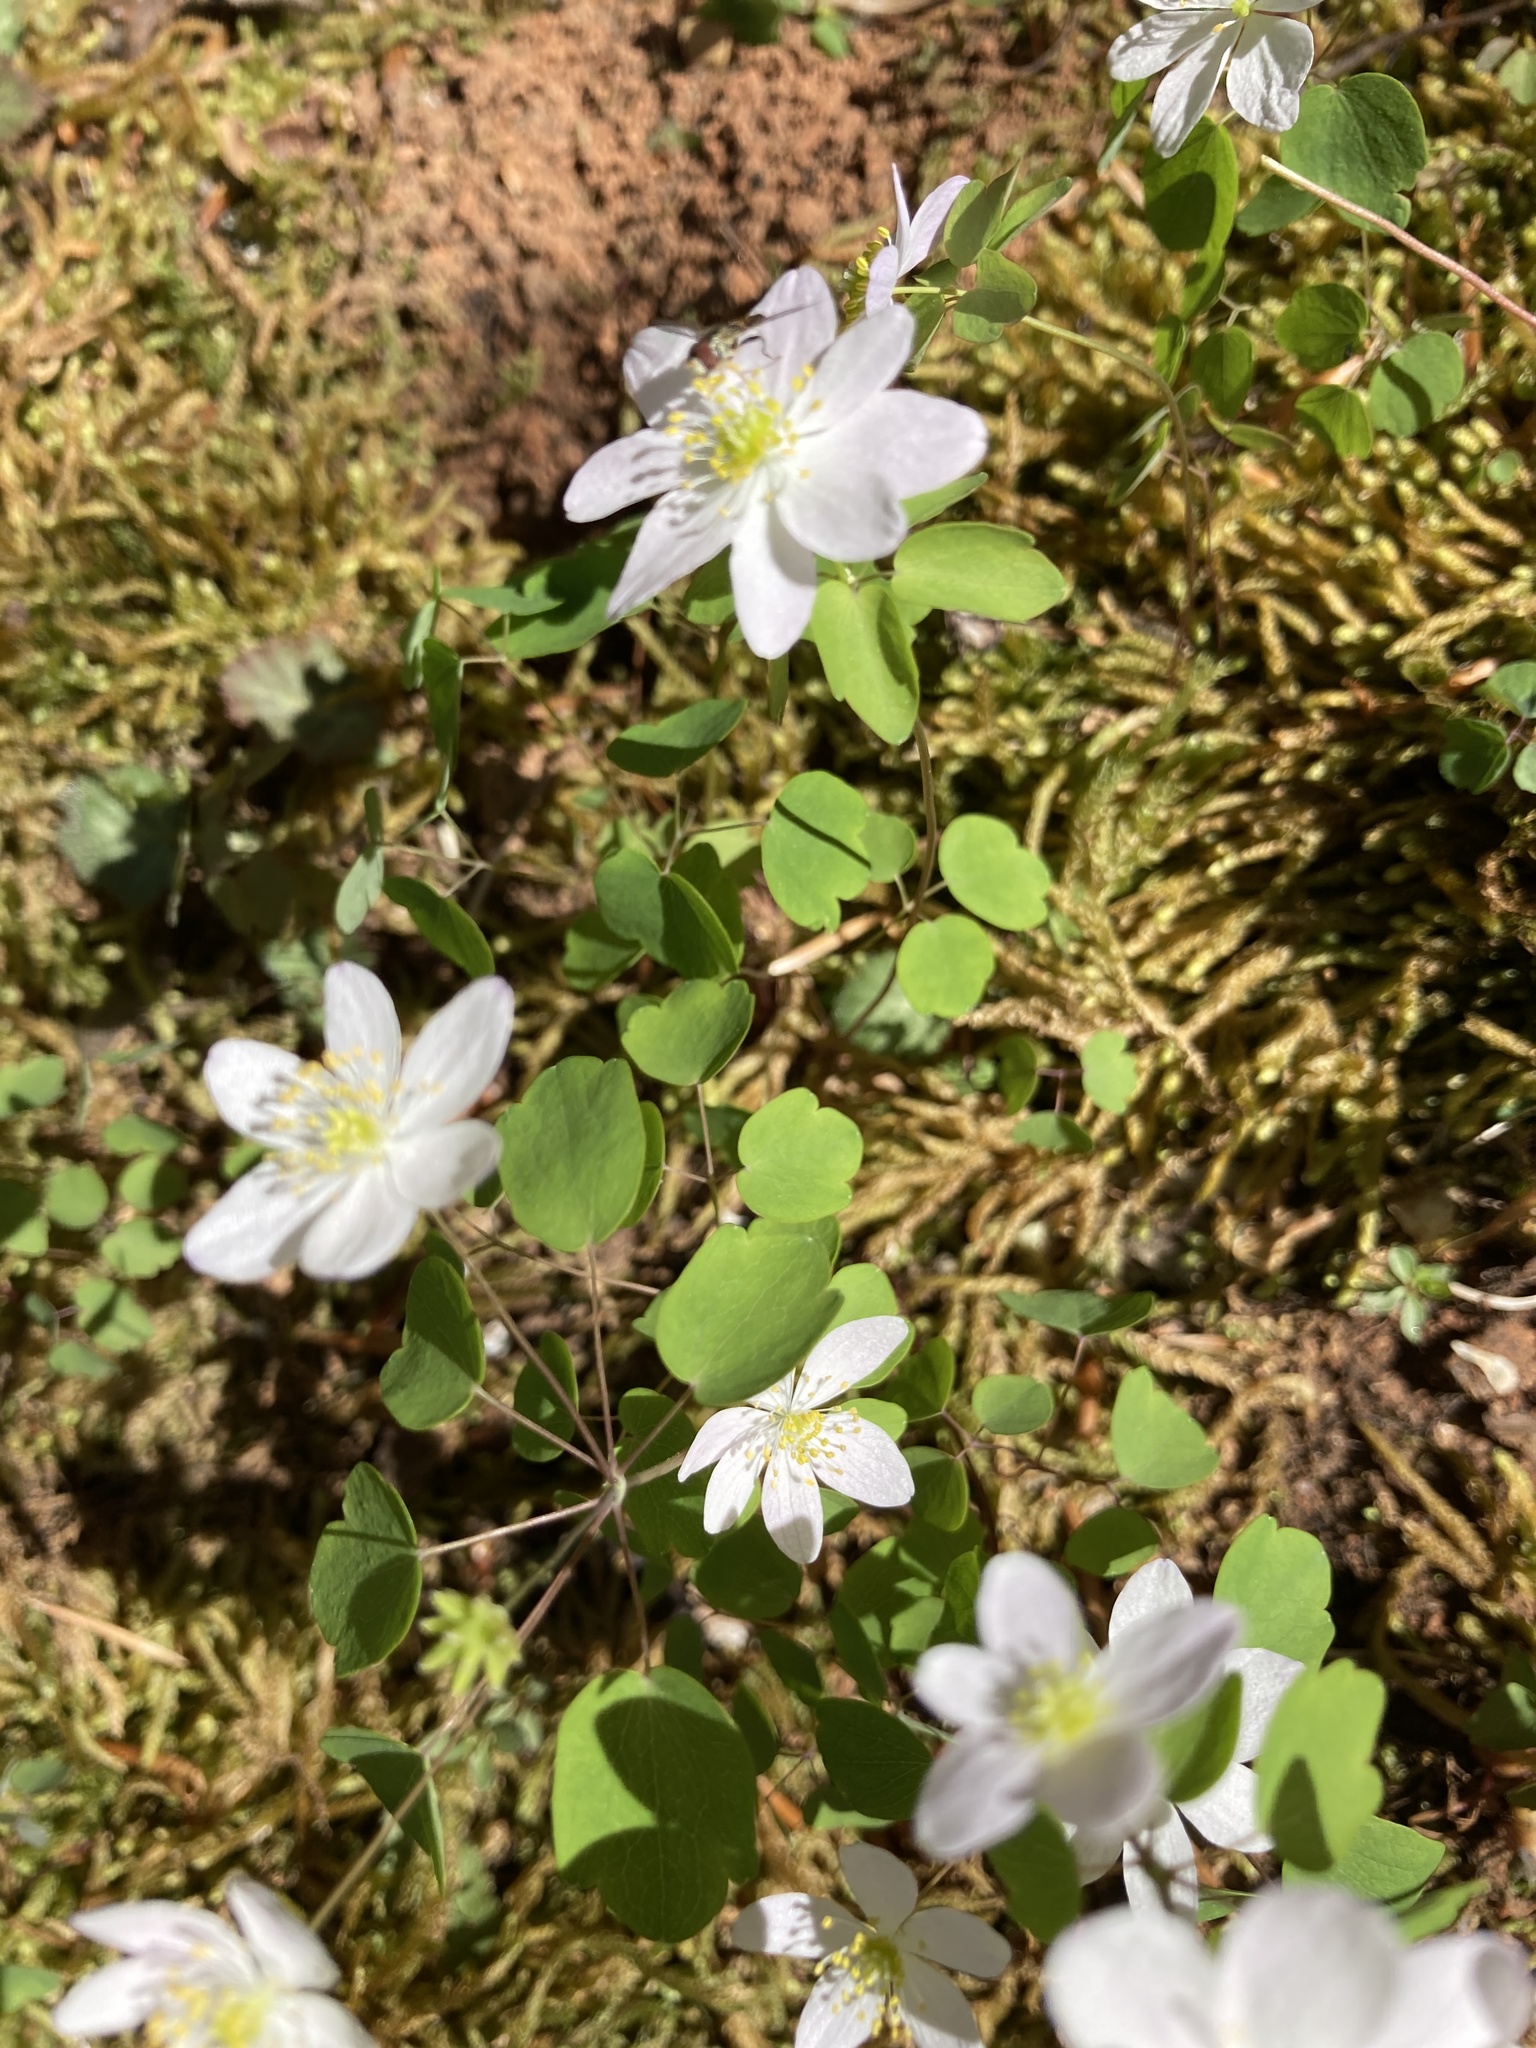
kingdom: Plantae
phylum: Tracheophyta
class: Magnoliopsida
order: Ranunculales
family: Ranunculaceae
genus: Thalictrum
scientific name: Thalictrum thalictroides
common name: Rue-anemone
